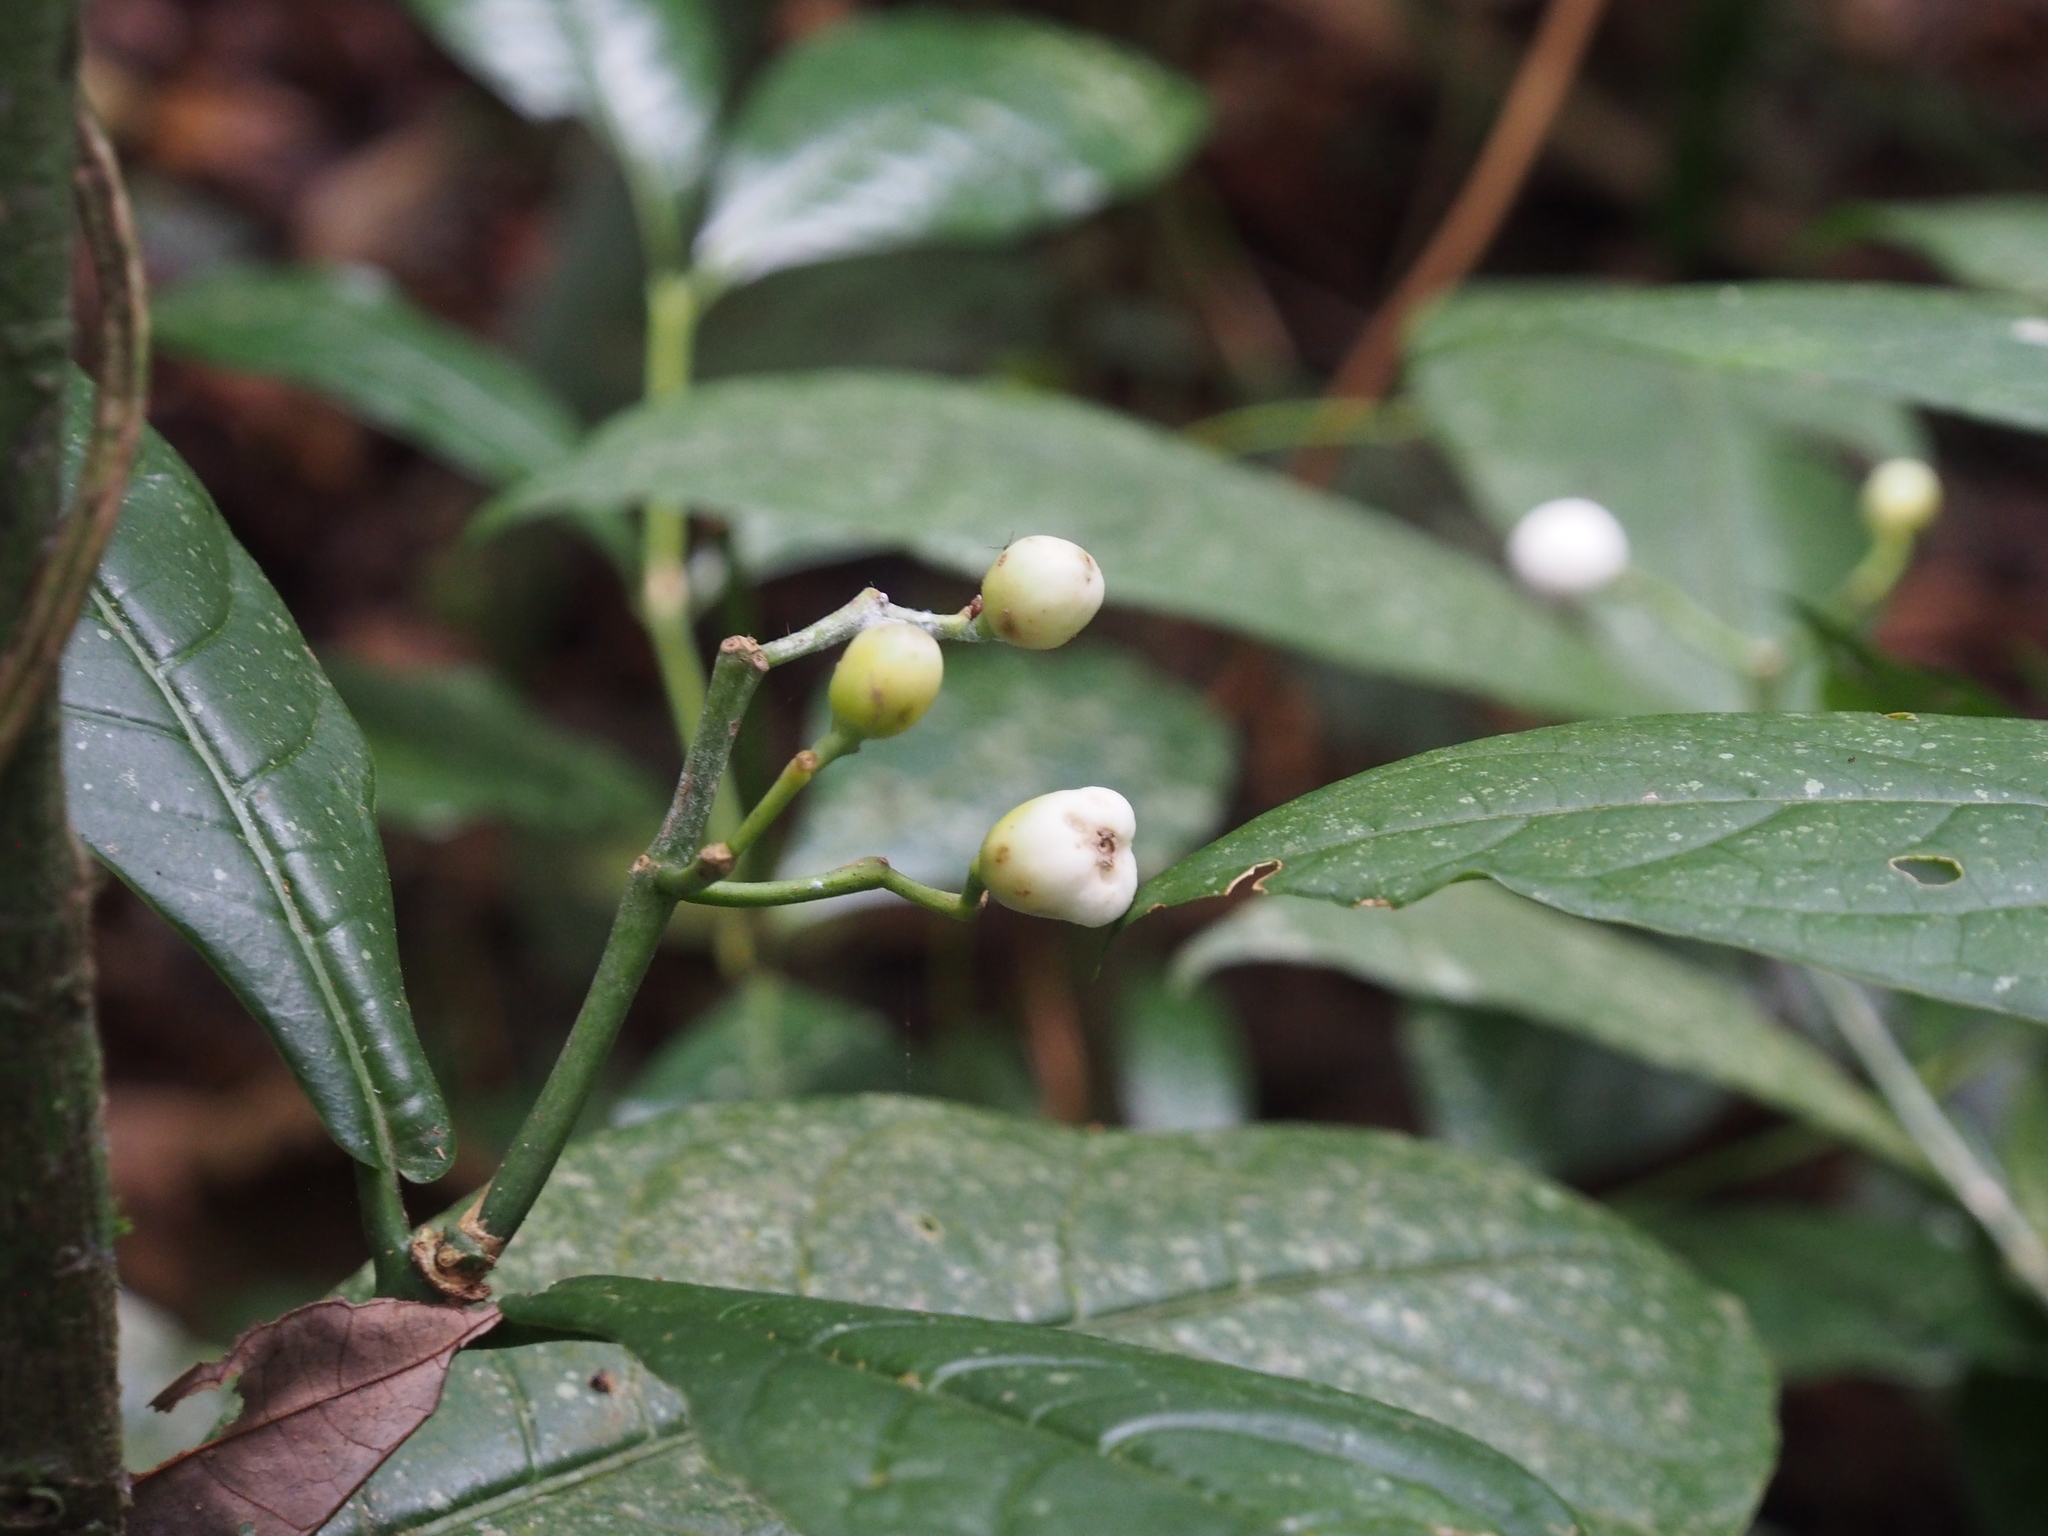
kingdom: Plantae
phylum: Tracheophyta
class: Magnoliopsida
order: Gentianales
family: Rubiaceae
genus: Rudgea
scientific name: Rudgea reducticalyx
